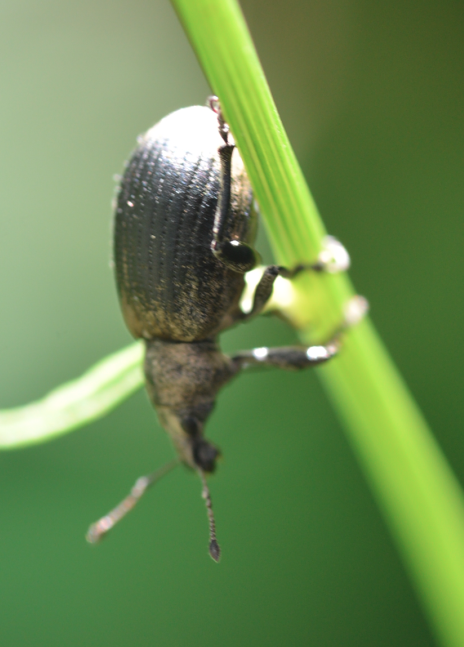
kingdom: Animalia
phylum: Arthropoda
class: Insecta
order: Coleoptera
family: Curculionidae
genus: Liophloeus
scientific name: Liophloeus tessulatus
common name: Weevil
